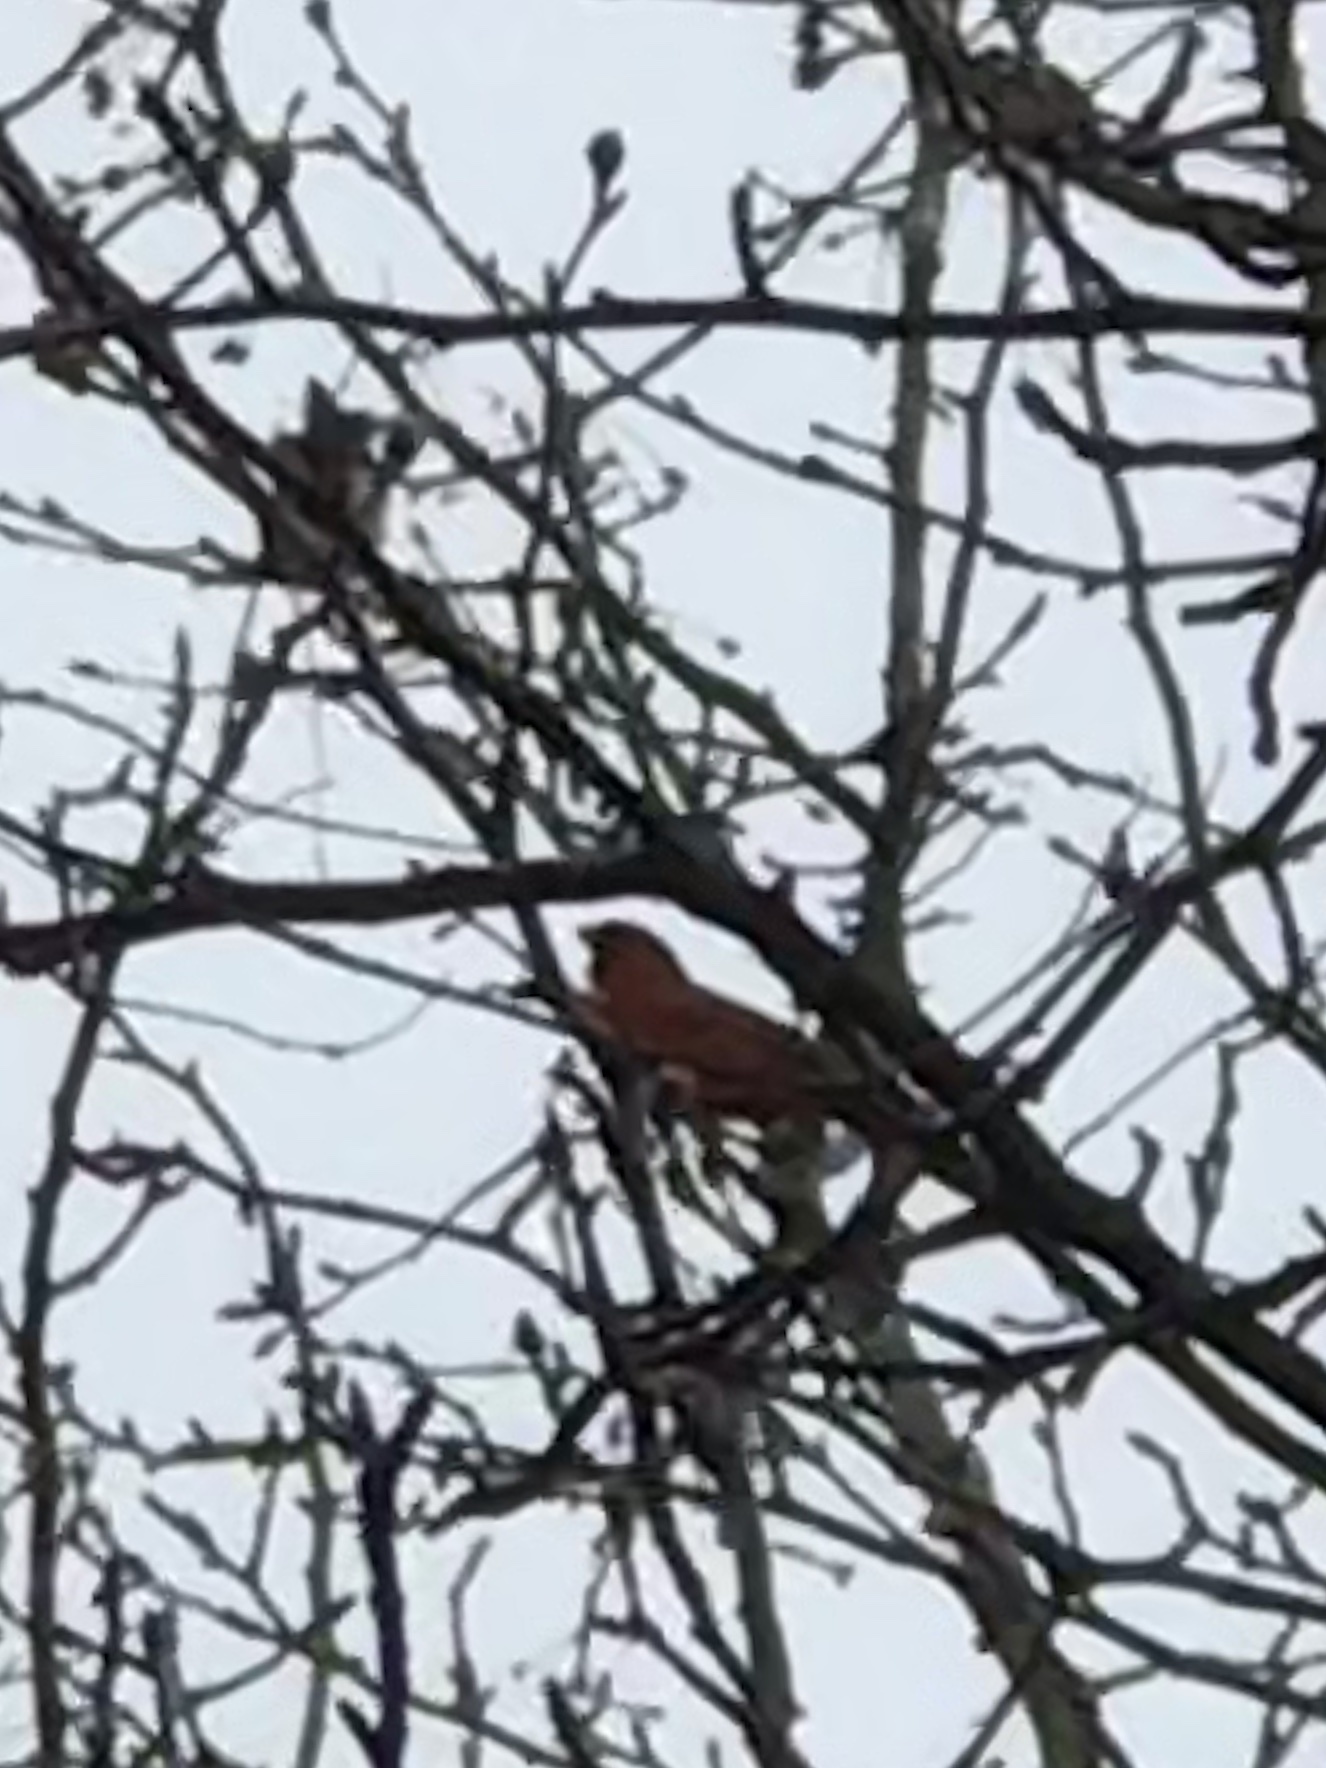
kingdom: Animalia
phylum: Chordata
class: Aves
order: Passeriformes
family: Cardinalidae
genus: Cardinalis
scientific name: Cardinalis cardinalis
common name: Northern cardinal
